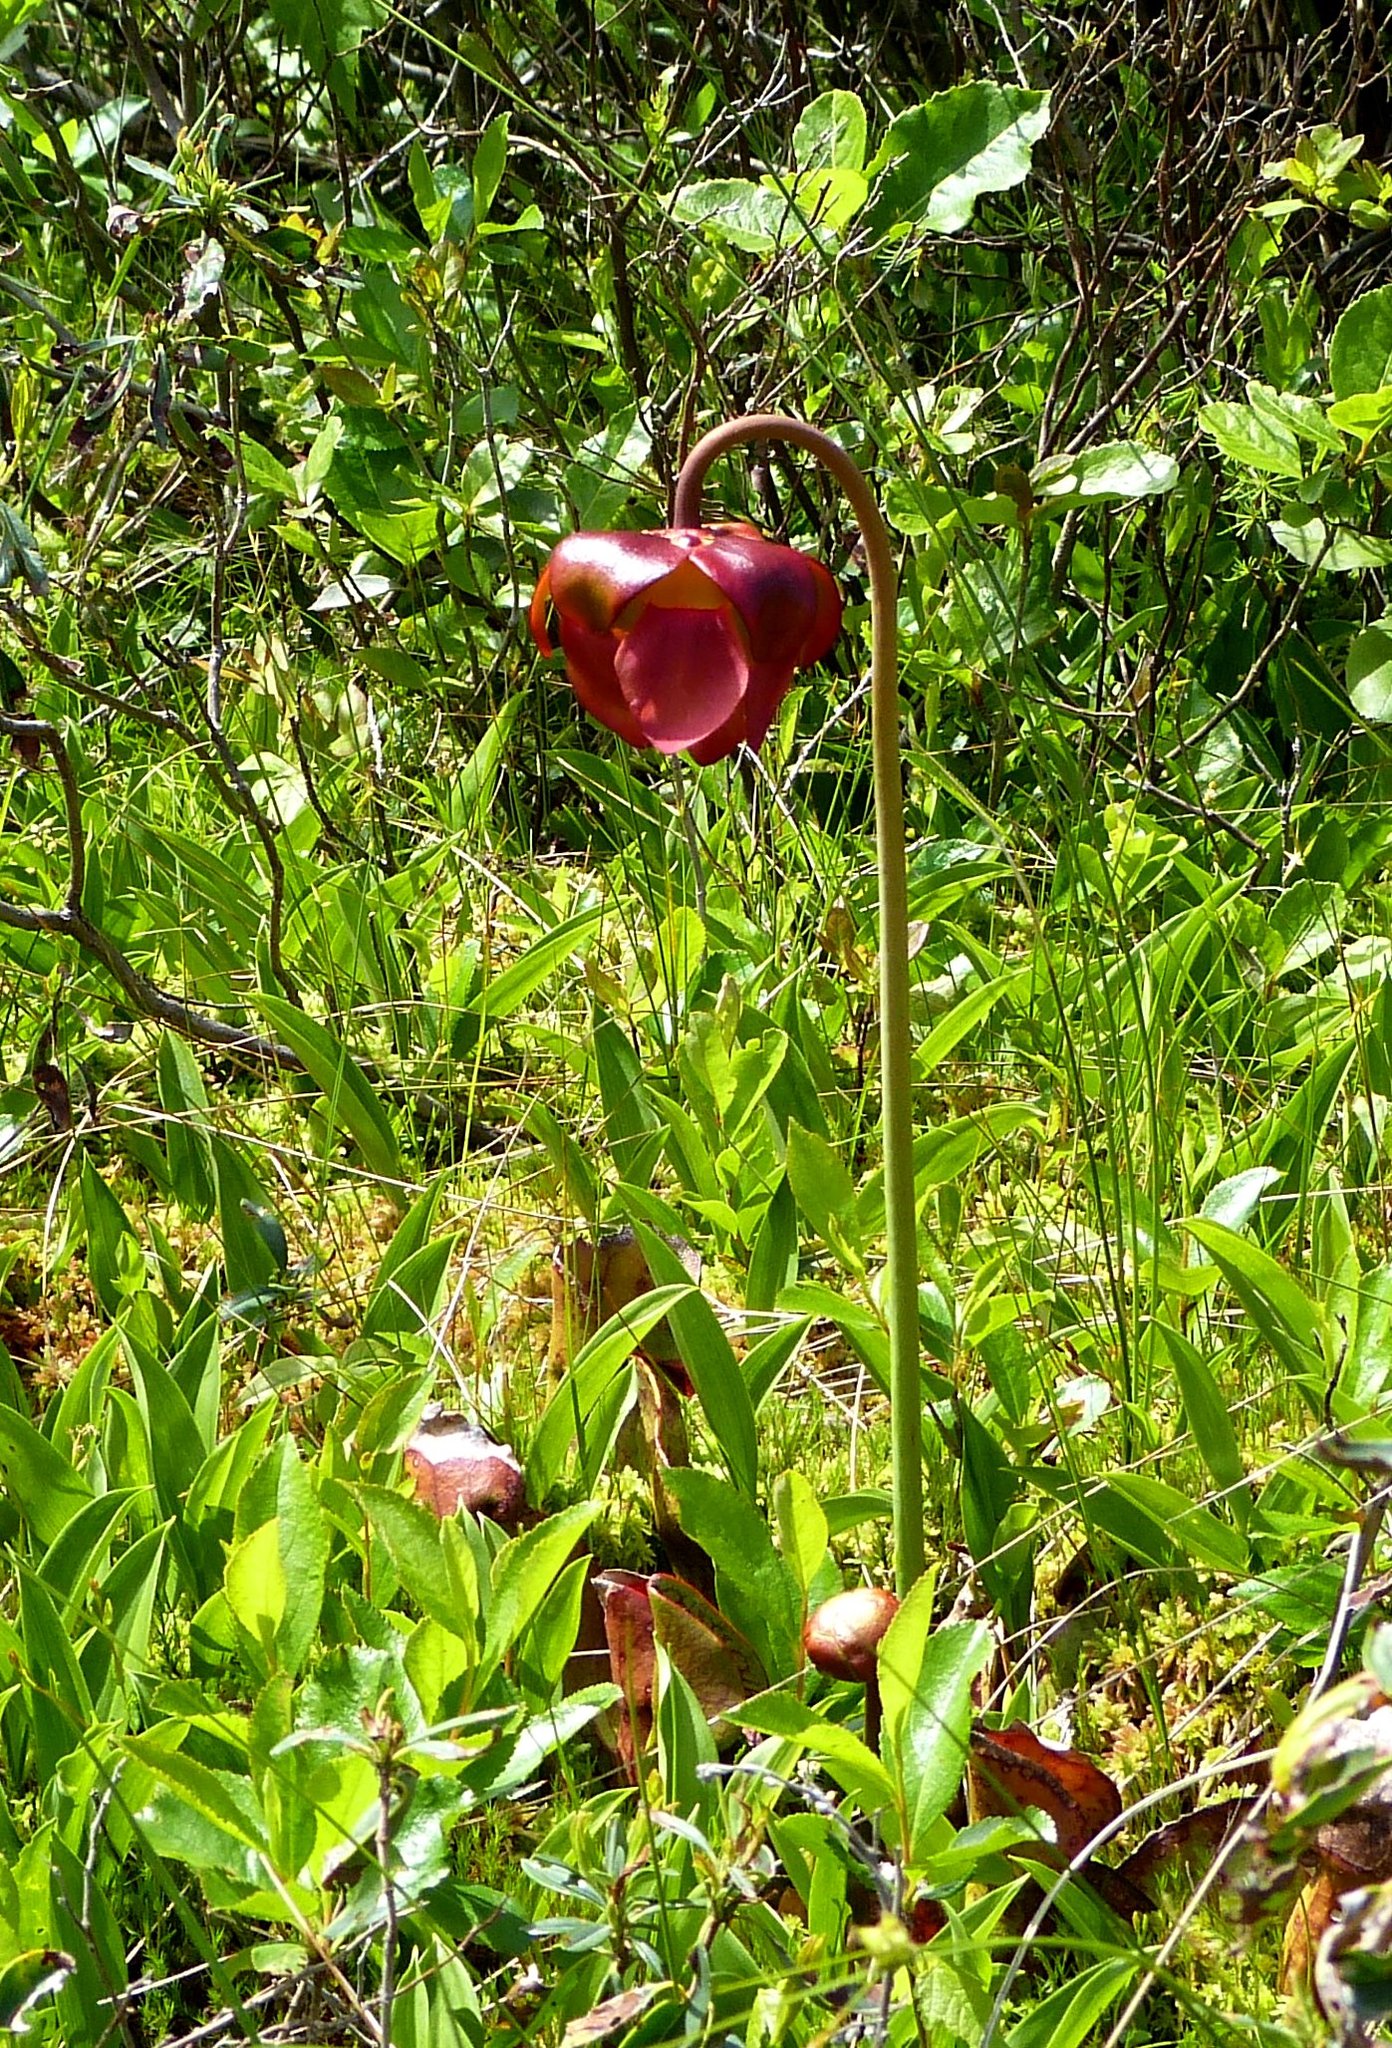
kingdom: Plantae
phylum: Tracheophyta
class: Magnoliopsida
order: Ericales
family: Sarraceniaceae
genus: Sarracenia
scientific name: Sarracenia purpurea
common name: Pitcherplant
